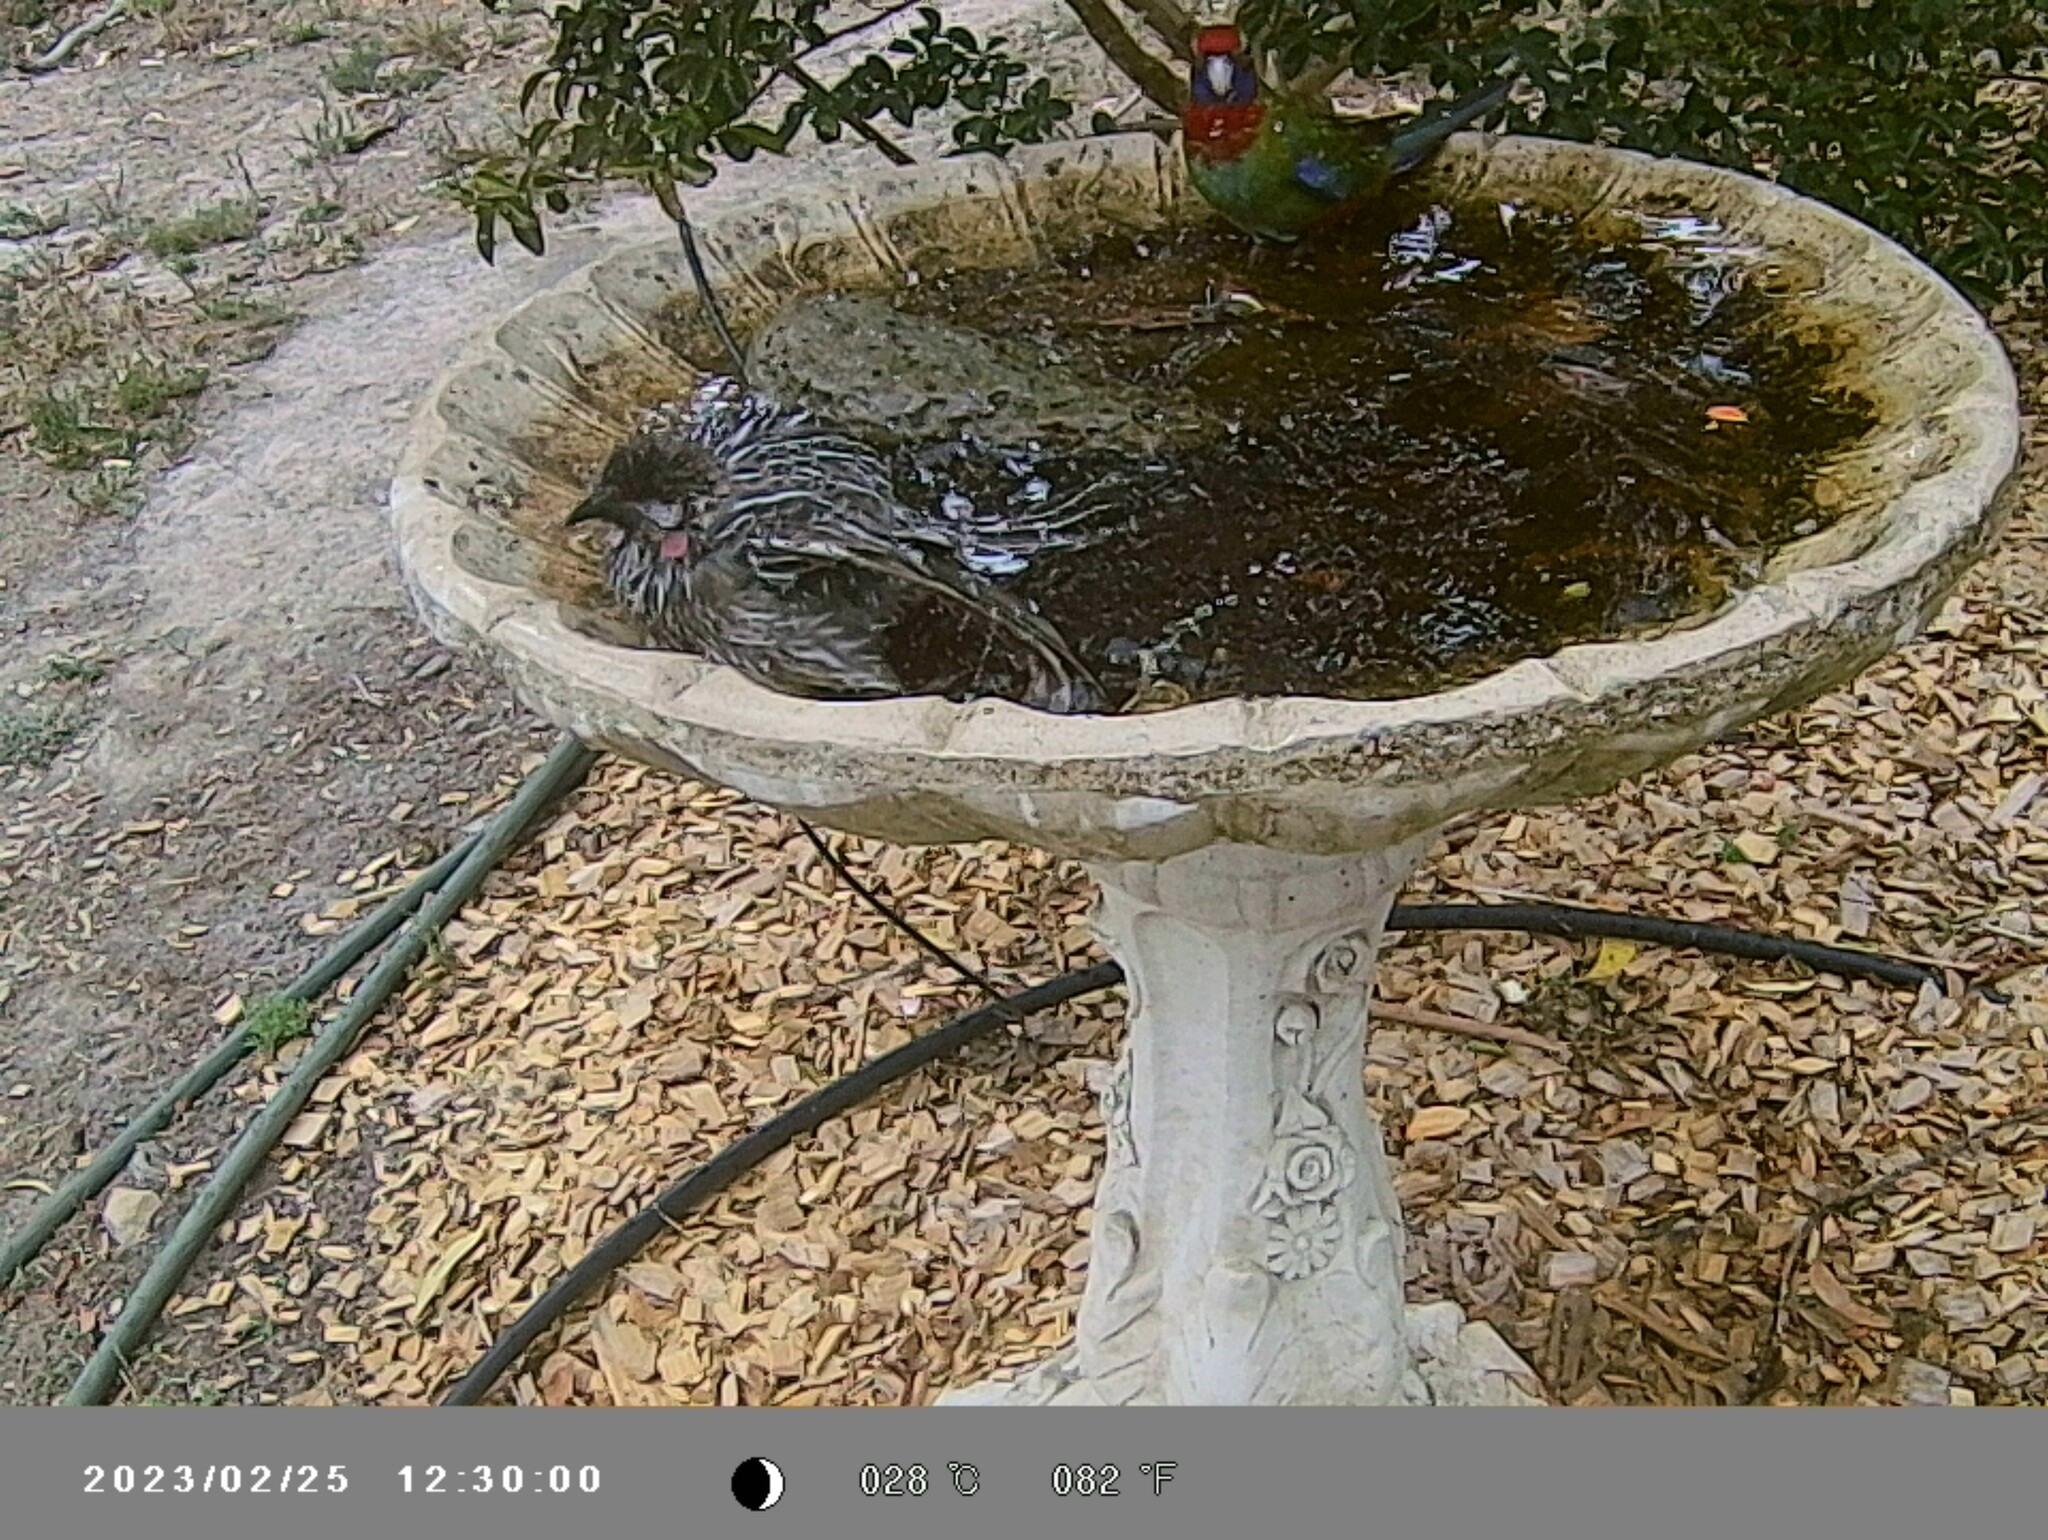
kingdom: Animalia
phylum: Chordata
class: Aves
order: Passeriformes
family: Meliphagidae
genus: Anthochaera
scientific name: Anthochaera carunculata
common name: Red wattlebird
